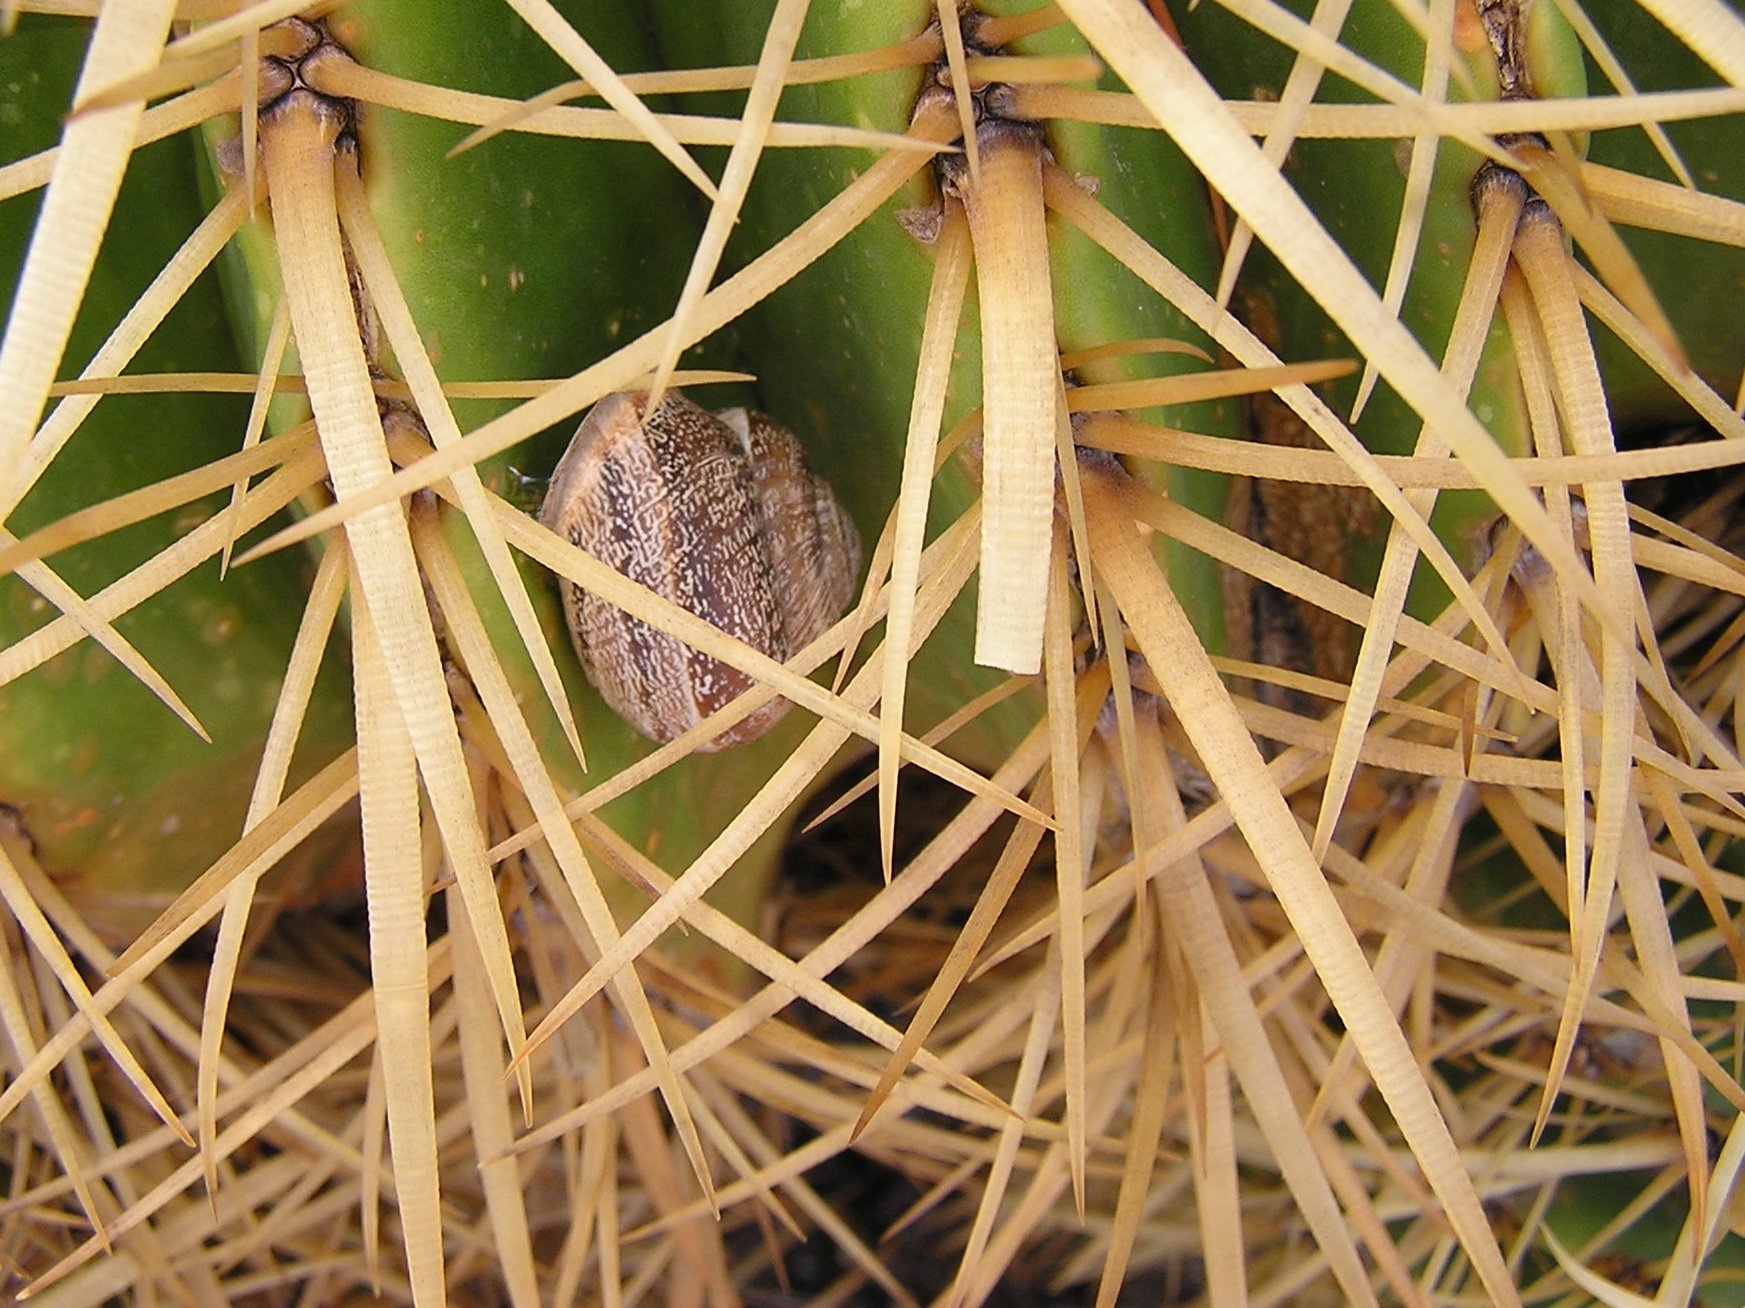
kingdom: Animalia
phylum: Mollusca
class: Gastropoda
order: Stylommatophora
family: Helicidae
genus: Eobania
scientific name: Eobania vermiculata
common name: Chocolateband snail
